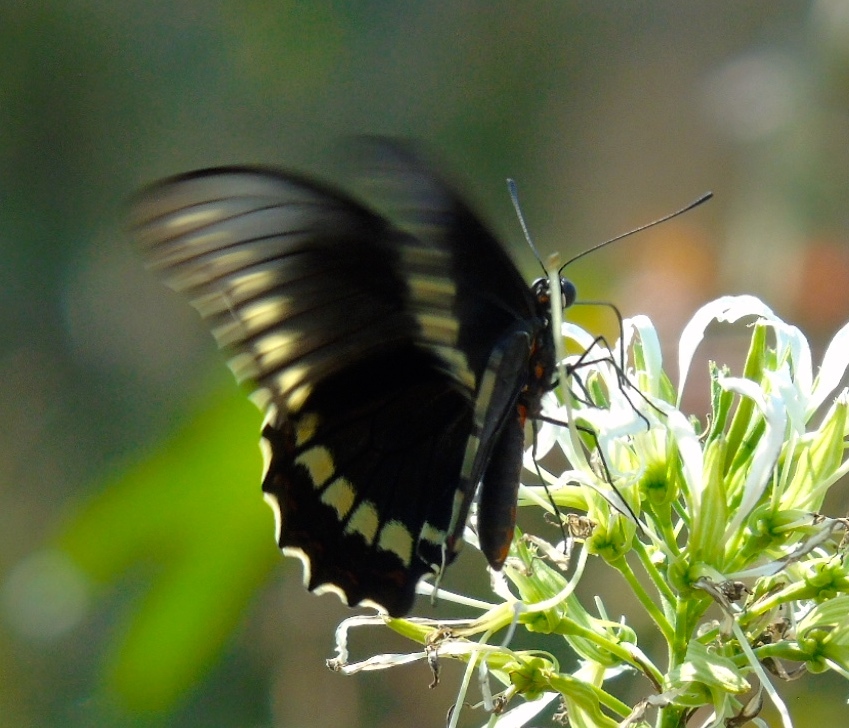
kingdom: Animalia
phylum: Arthropoda
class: Insecta
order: Lepidoptera
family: Papilionidae
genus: Battus
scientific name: Battus polydamas
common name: Polydamas swallowtail
